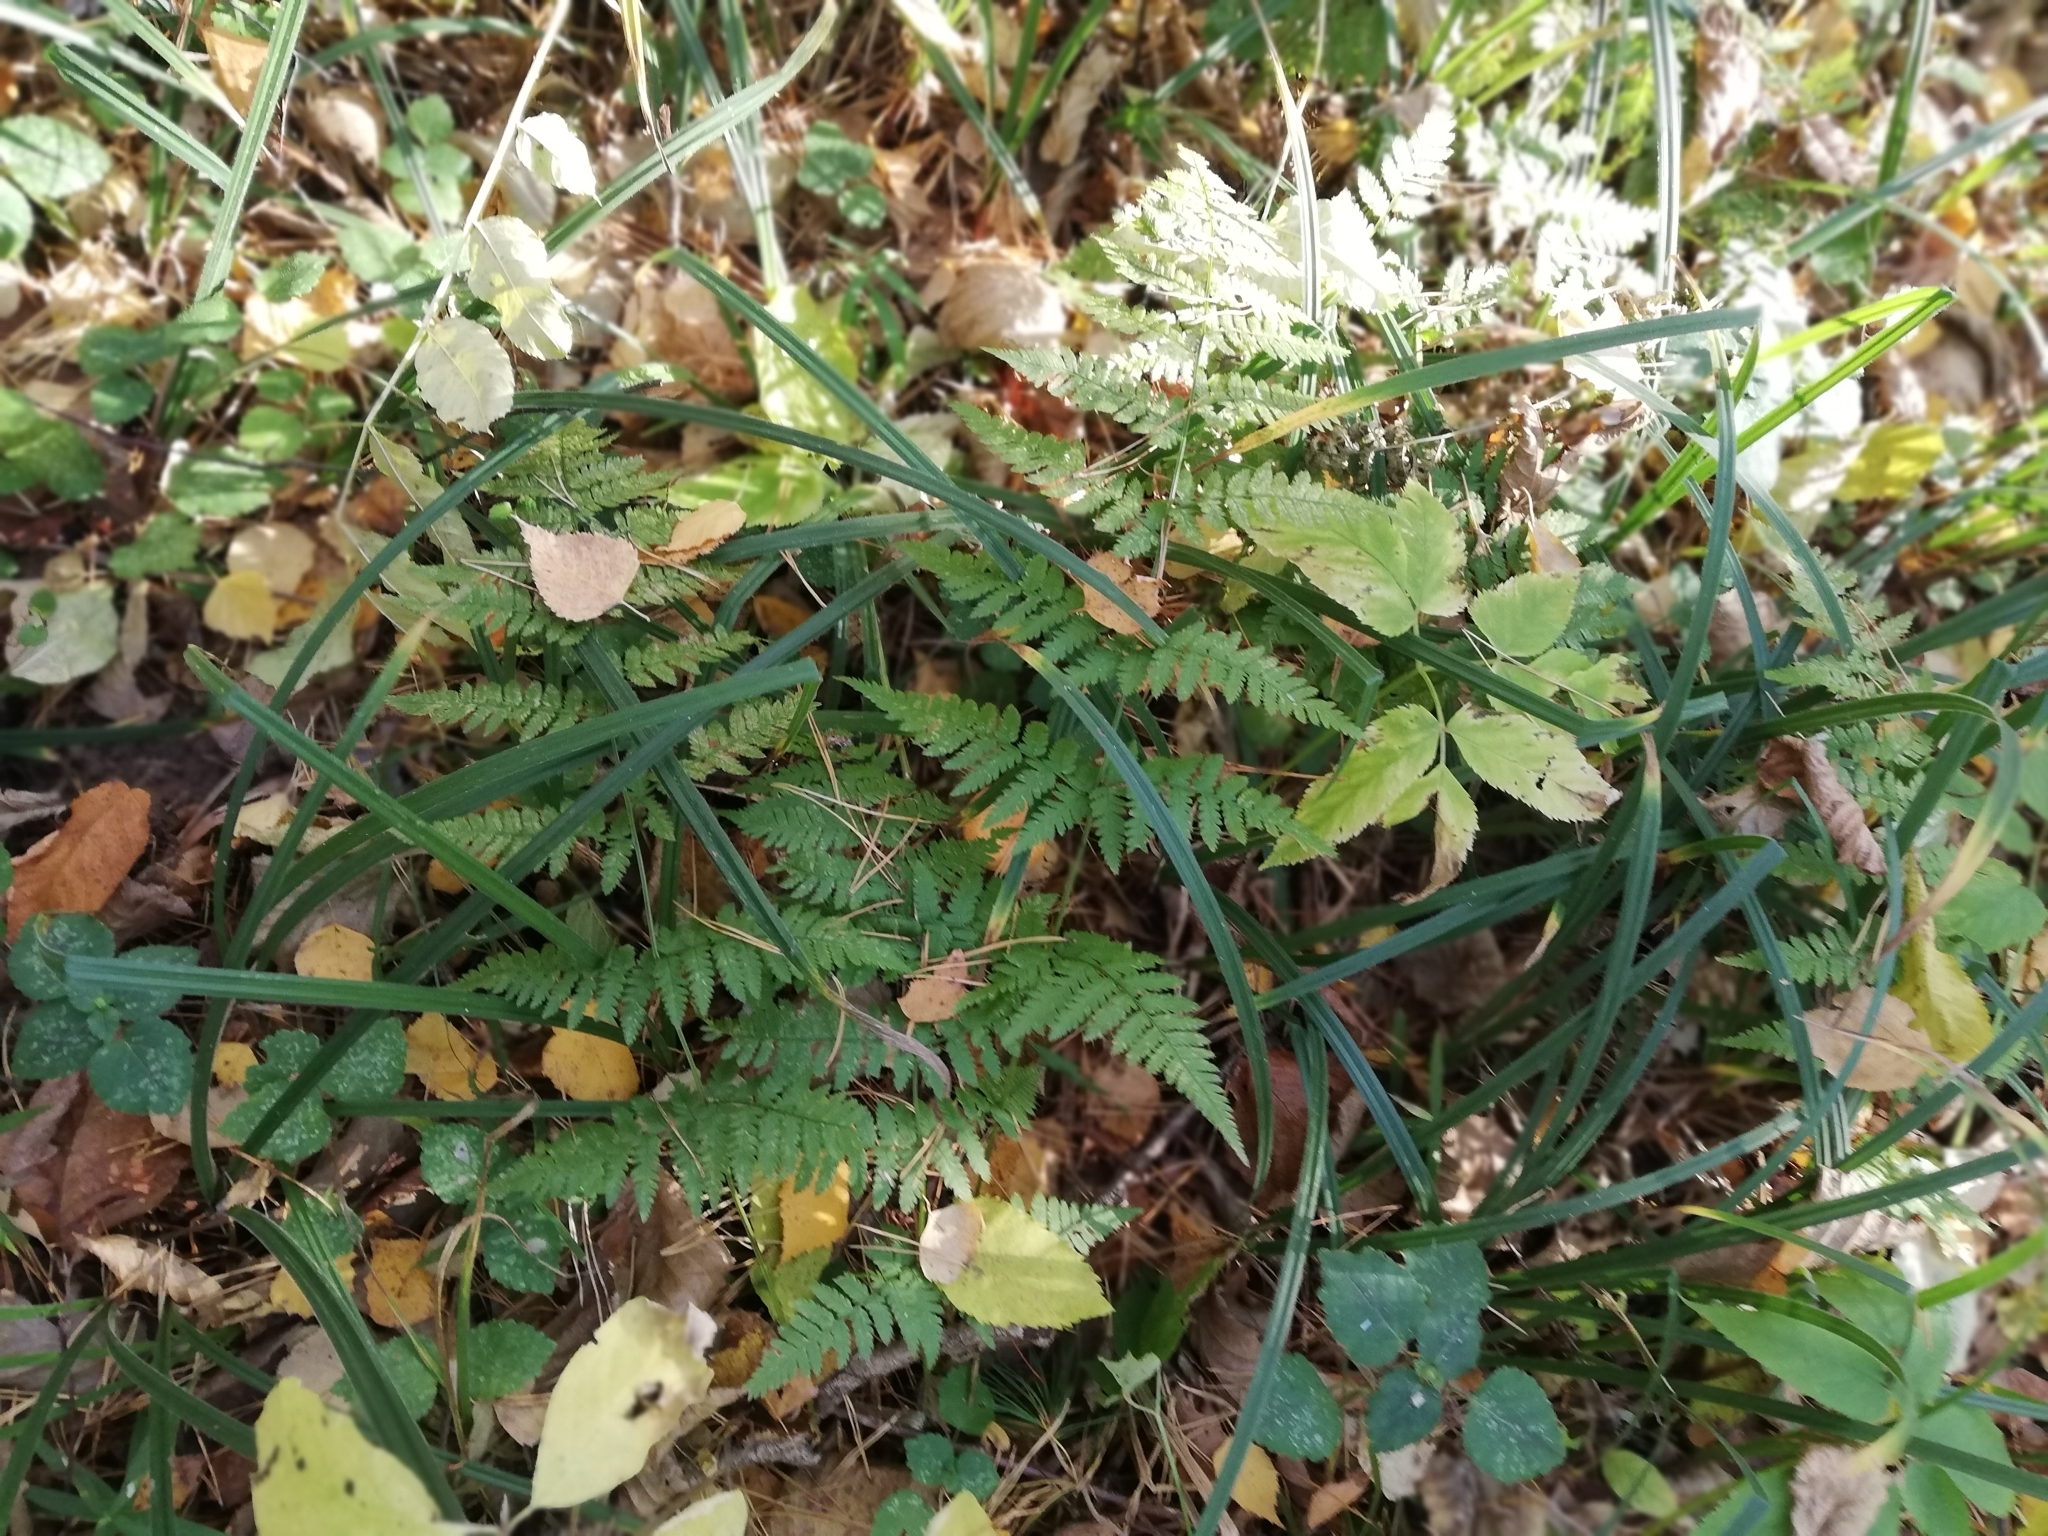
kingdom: Plantae
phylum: Tracheophyta
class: Polypodiopsida
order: Polypodiales
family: Dryopteridaceae
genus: Dryopteris
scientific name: Dryopteris carthusiana
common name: Narrow buckler-fern
